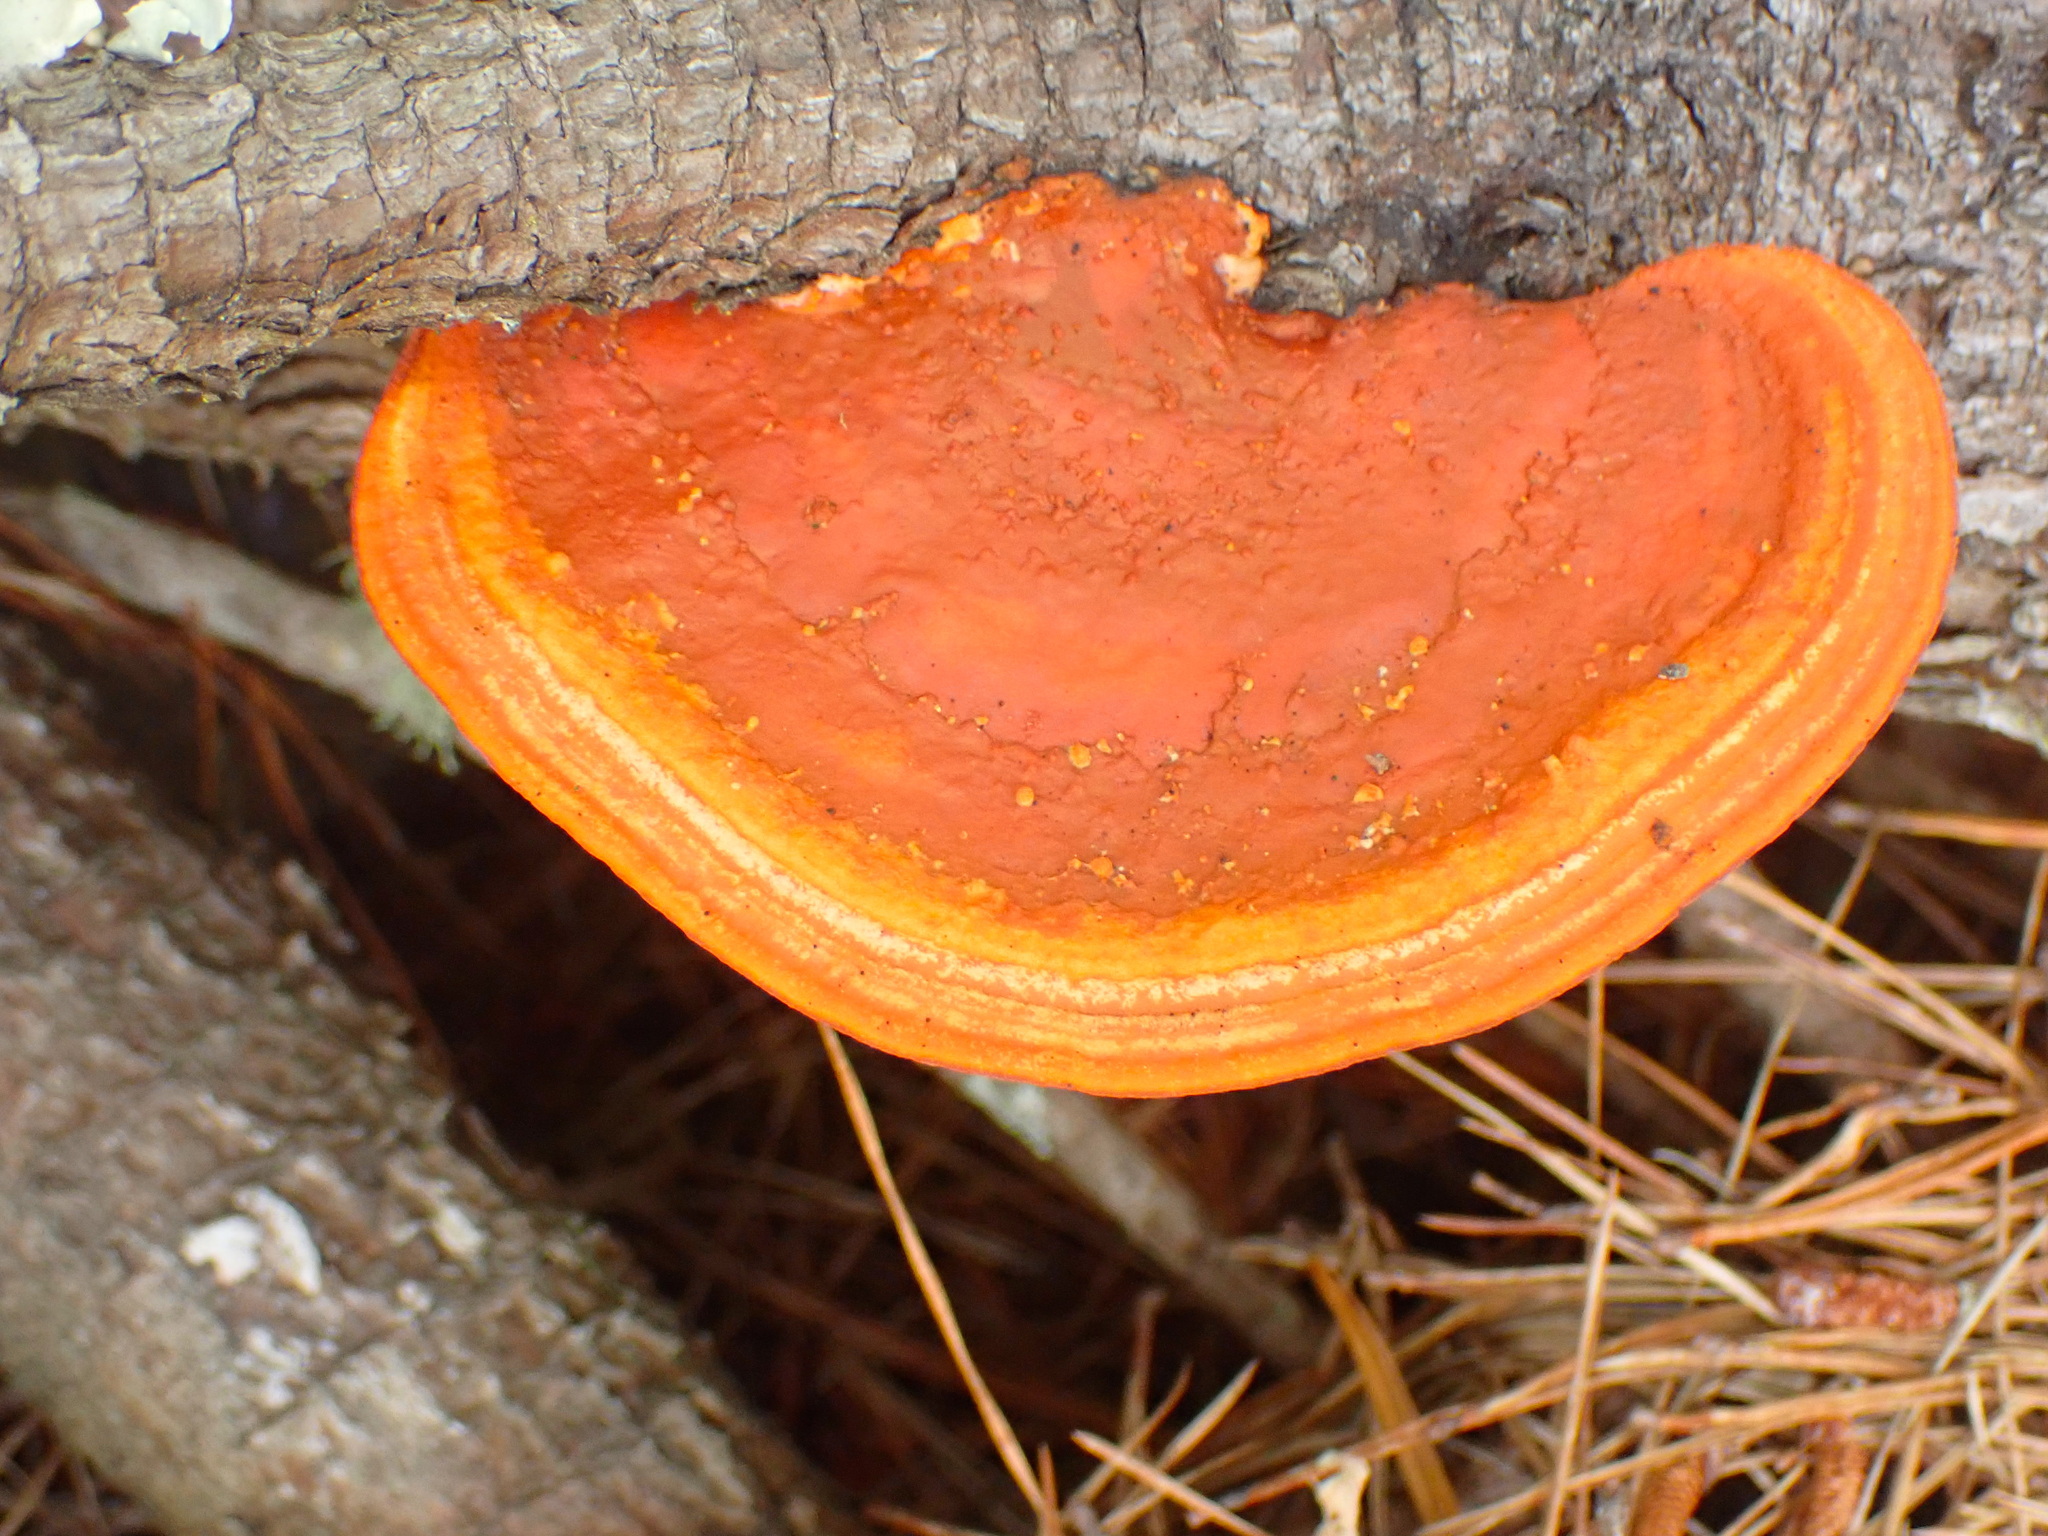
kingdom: Fungi
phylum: Basidiomycota
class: Agaricomycetes
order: Polyporales
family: Polyporaceae
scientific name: Polyporaceae
